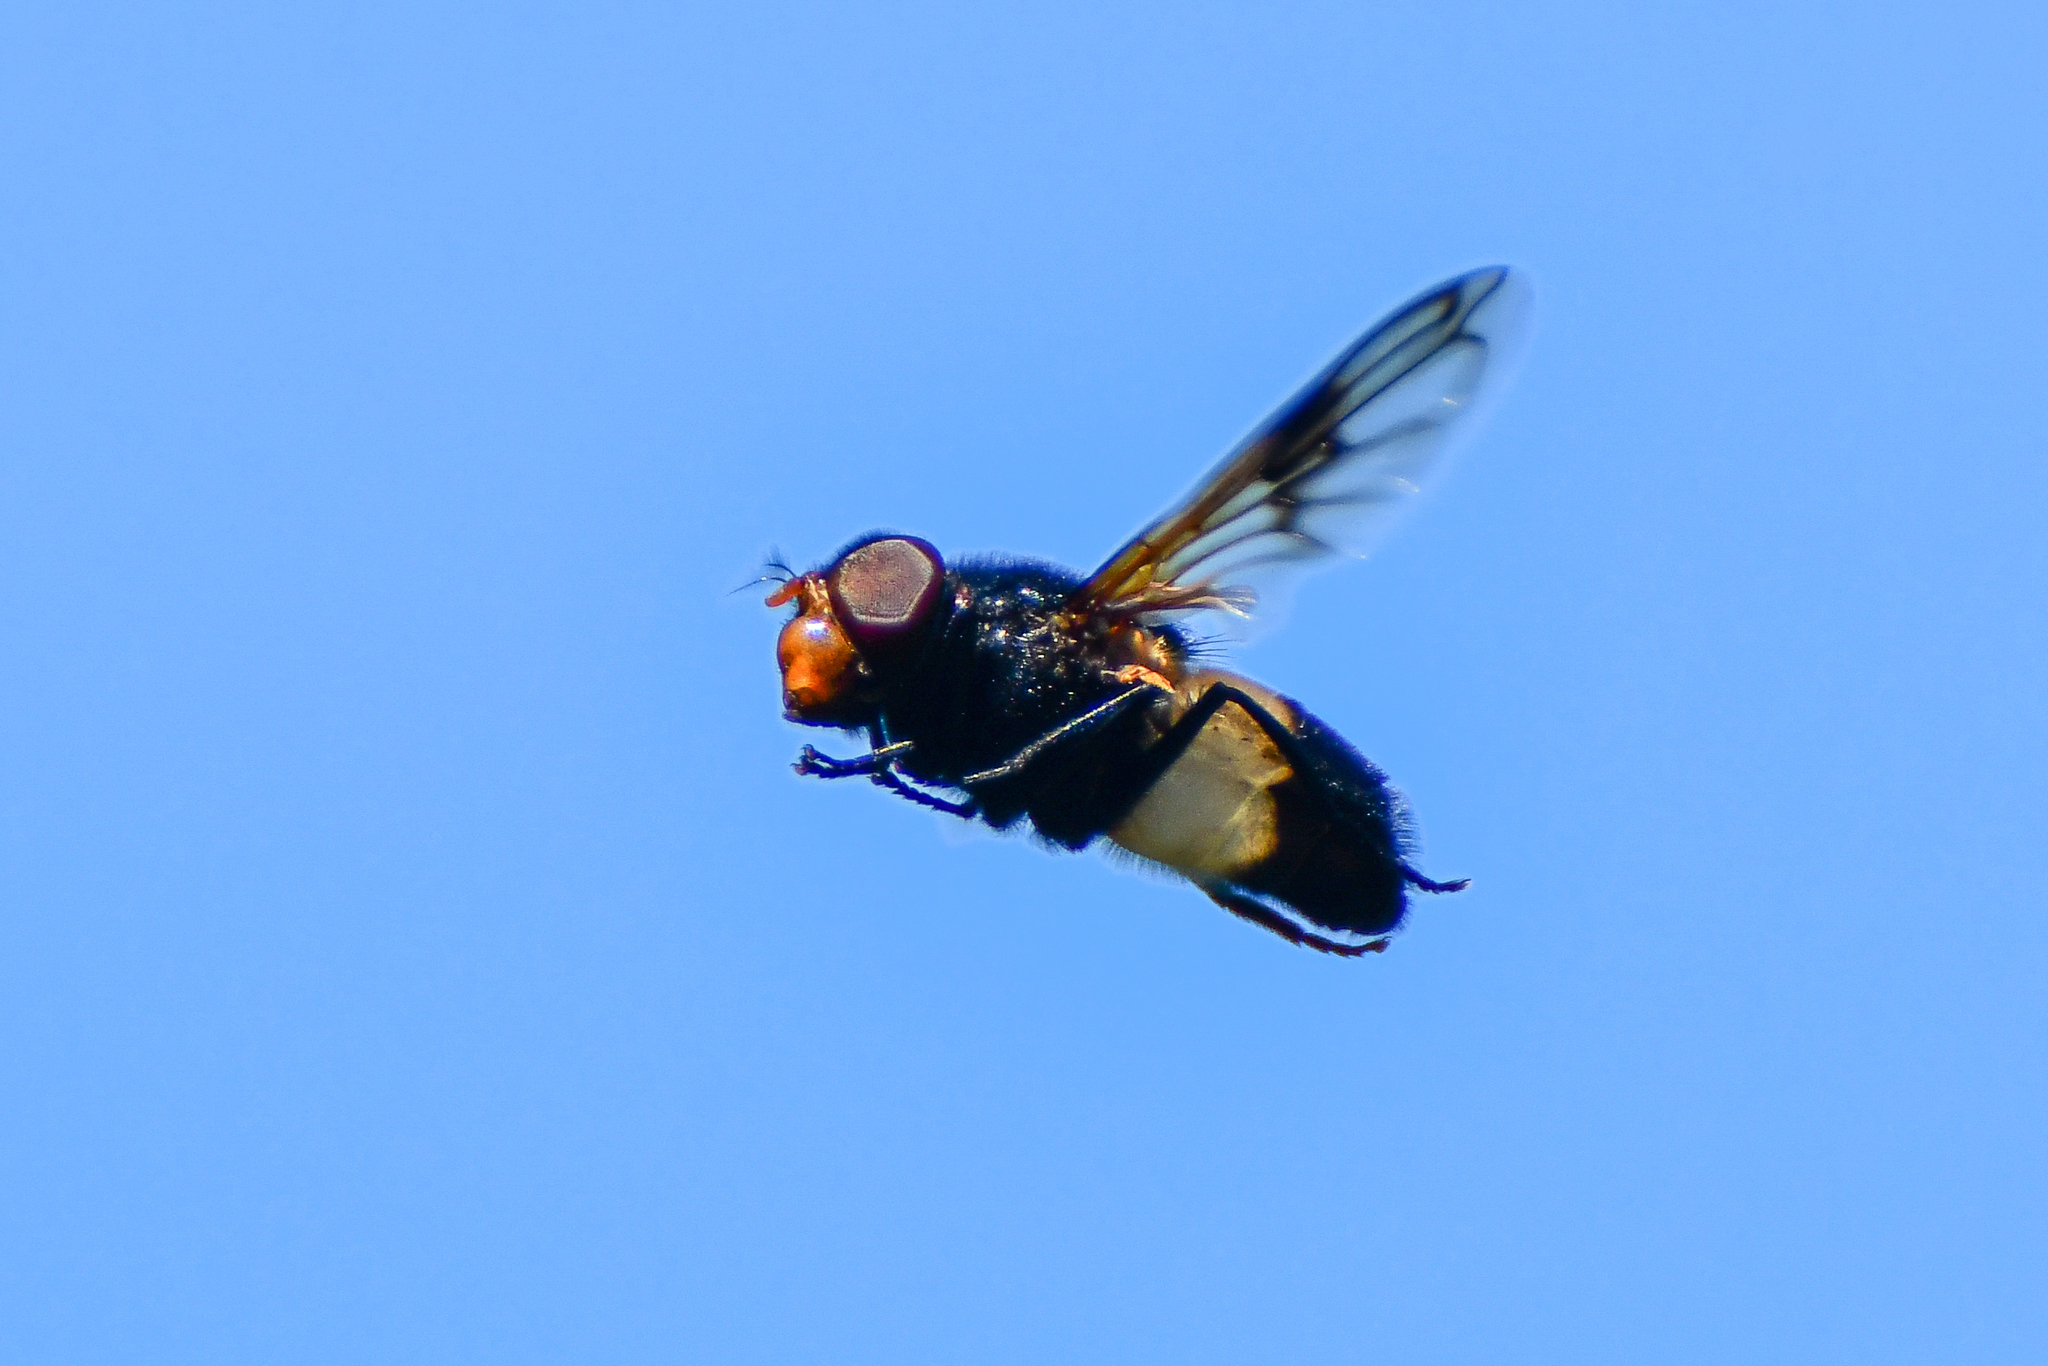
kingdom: Animalia
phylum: Arthropoda
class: Insecta
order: Diptera
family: Syrphidae
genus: Volucella
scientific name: Volucella pellucens
